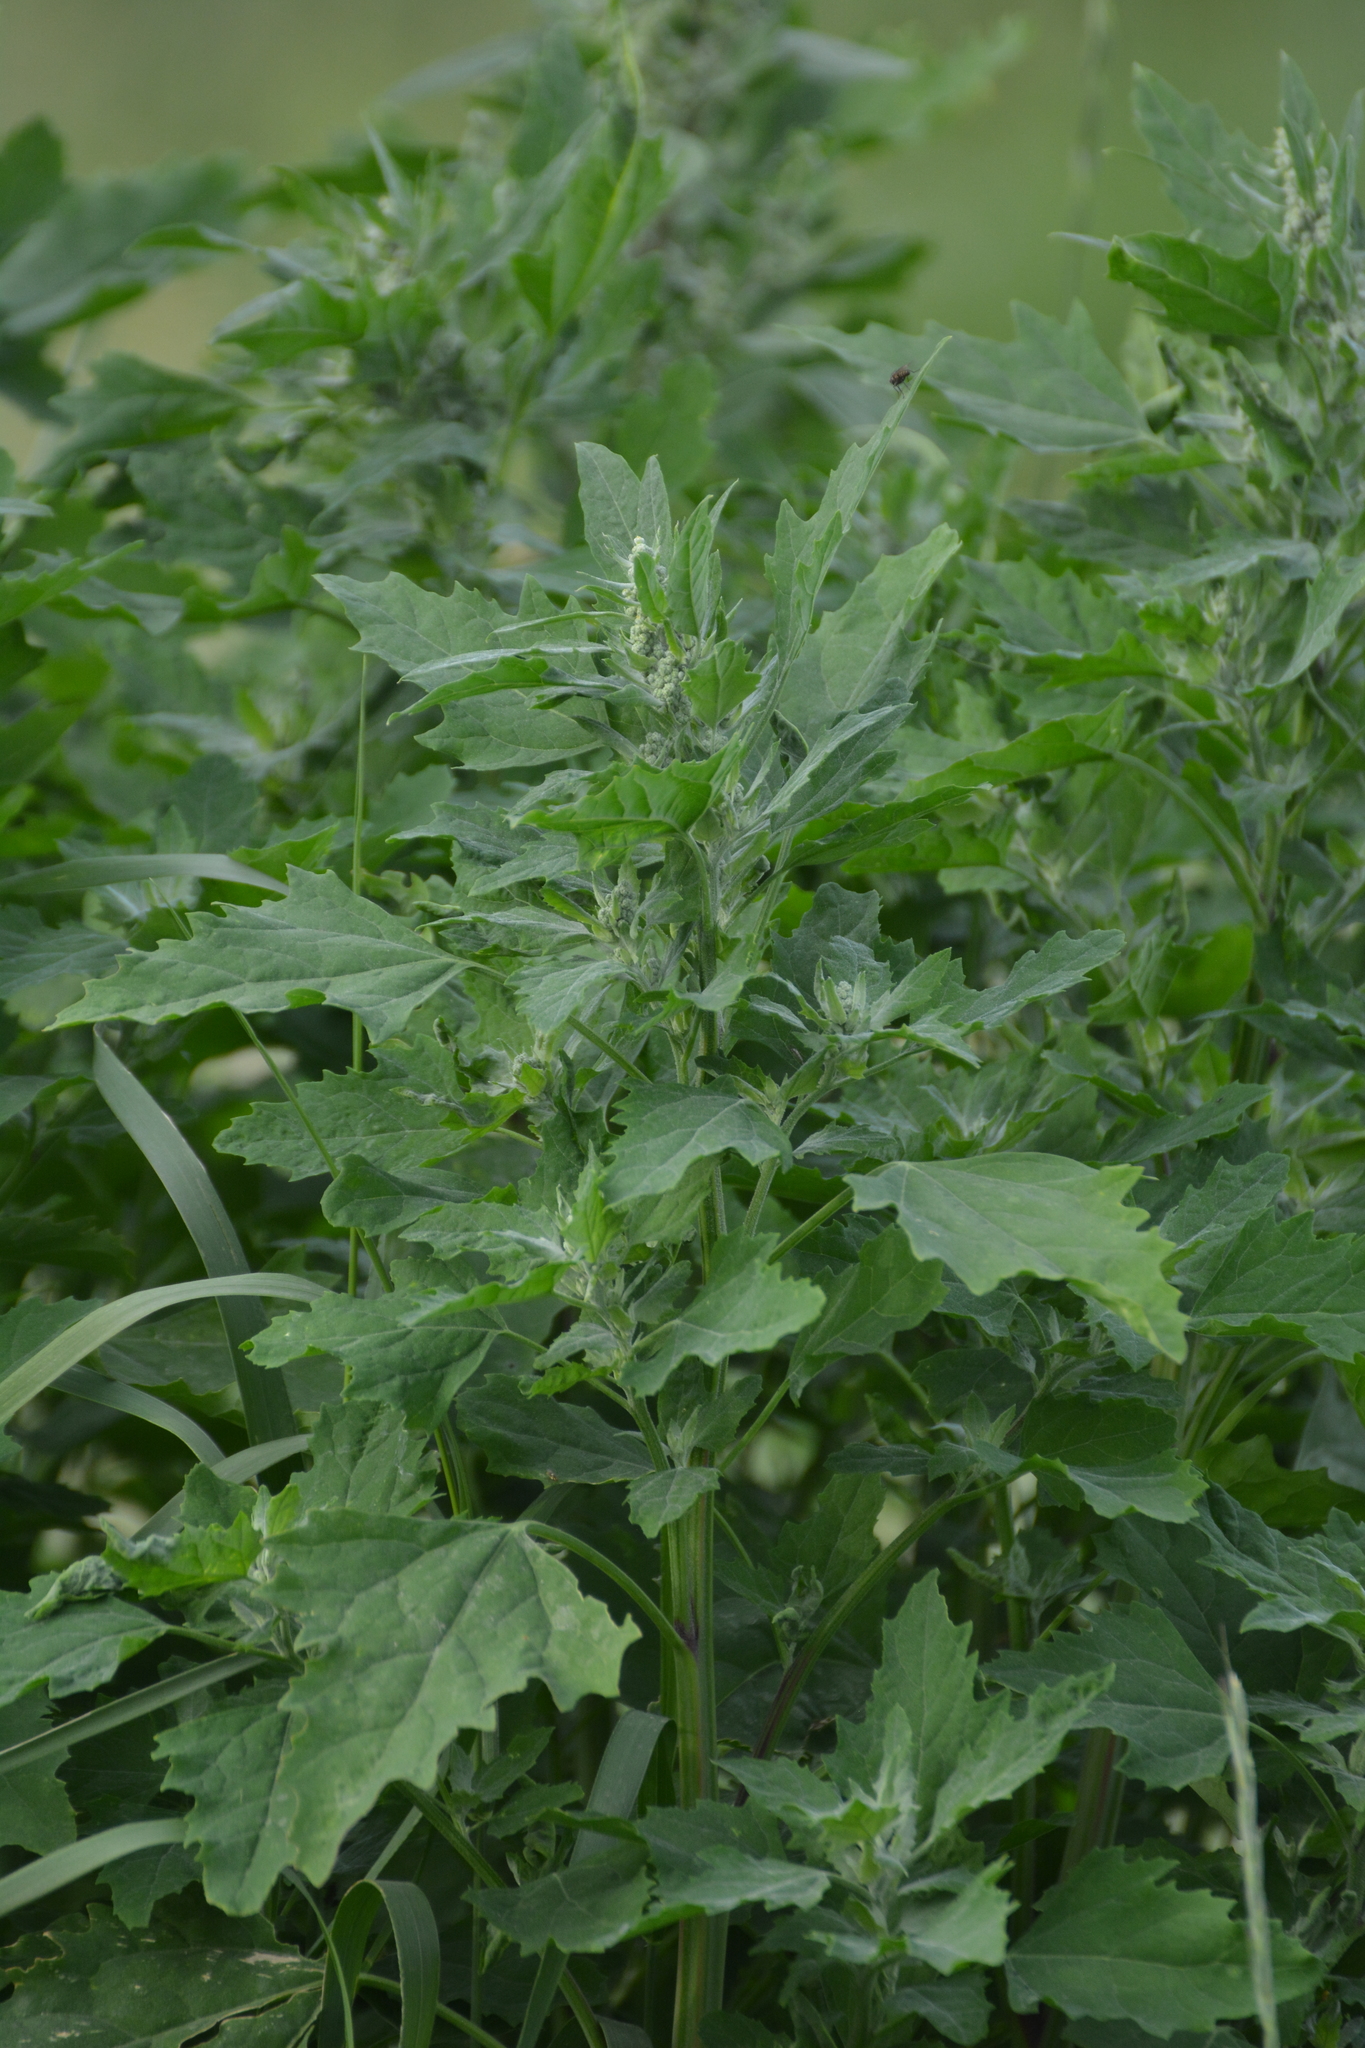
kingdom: Plantae
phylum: Tracheophyta
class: Magnoliopsida
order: Caryophyllales
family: Amaranthaceae
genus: Chenopodium
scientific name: Chenopodium album
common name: Fat-hen
